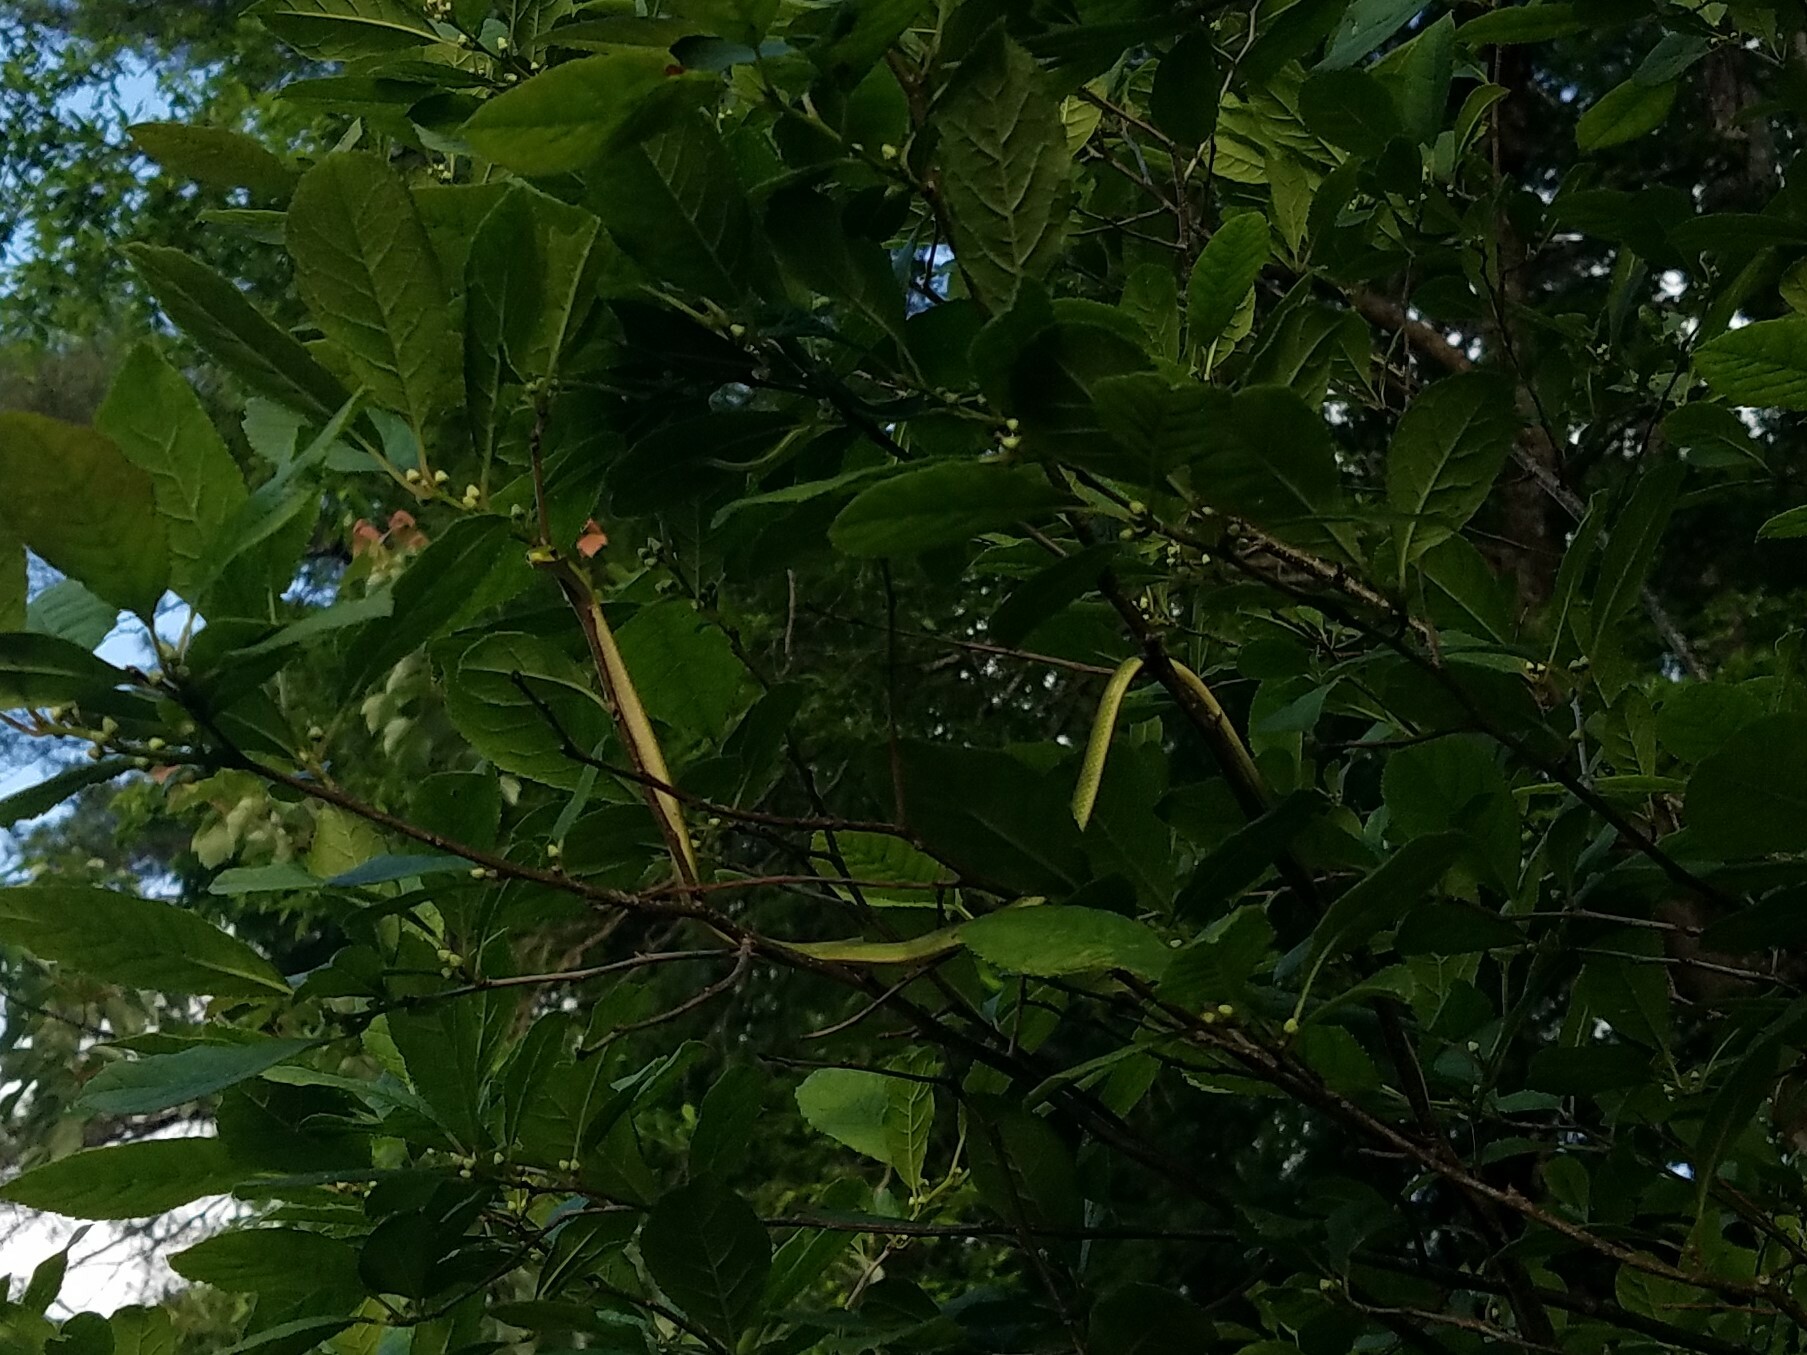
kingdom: Animalia
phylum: Chordata
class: Squamata
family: Colubridae
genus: Opheodrys
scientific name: Opheodrys aestivus
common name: Rough greensnake
